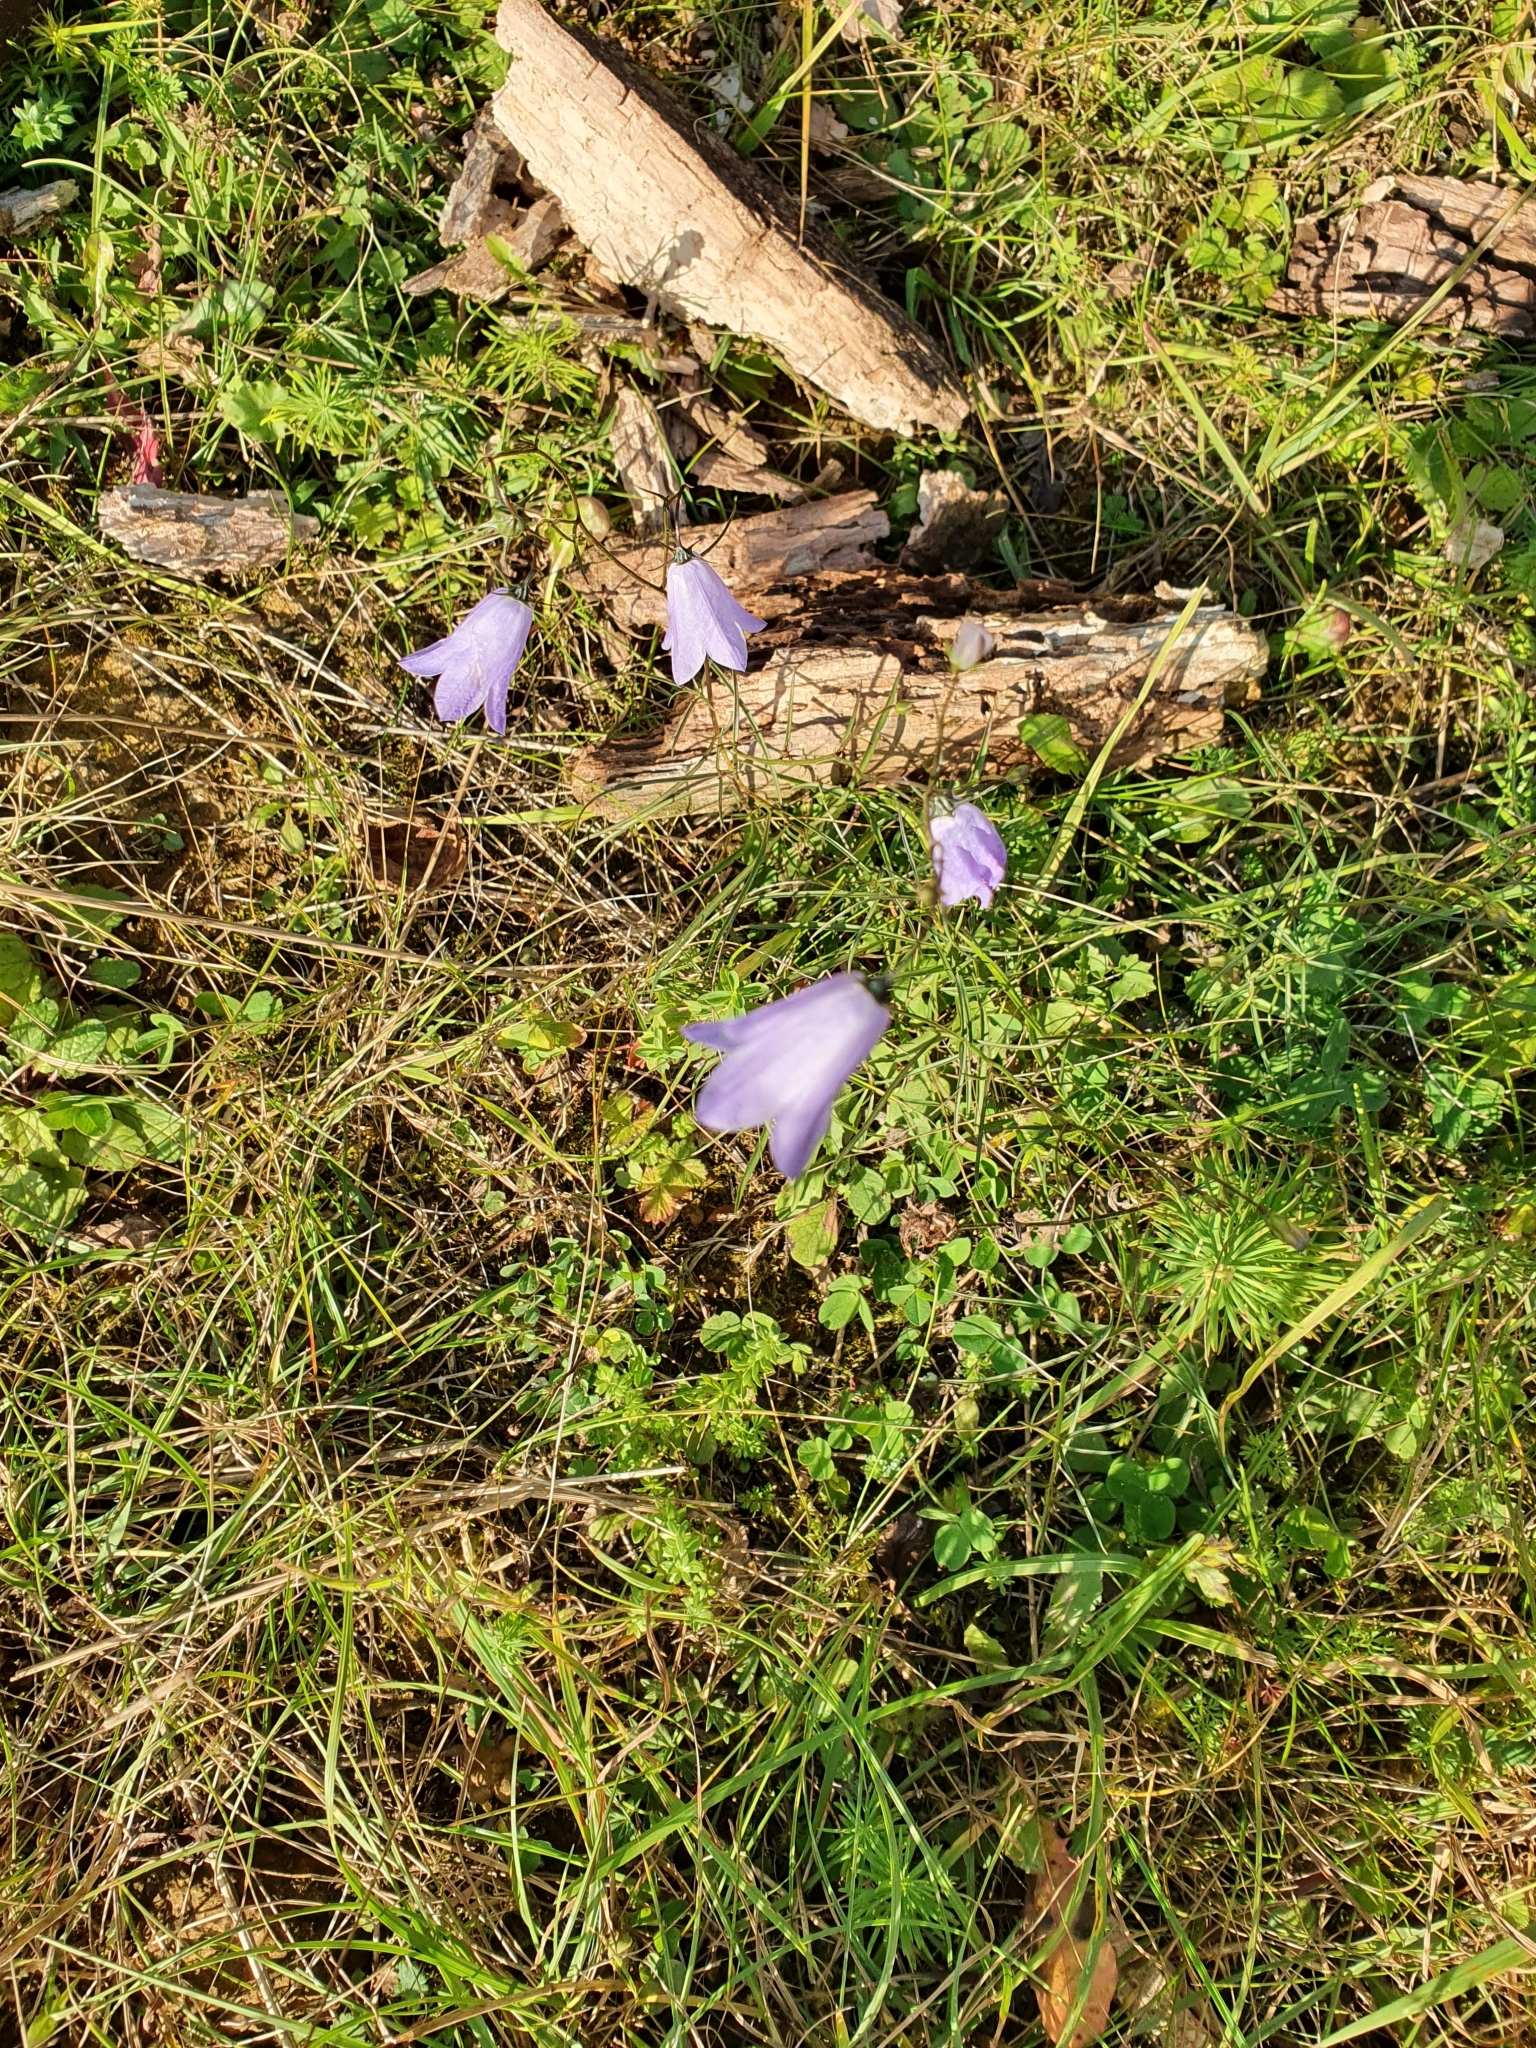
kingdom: Plantae
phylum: Tracheophyta
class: Magnoliopsida
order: Asterales
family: Campanulaceae
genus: Campanula
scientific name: Campanula rotundifolia
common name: Harebell
